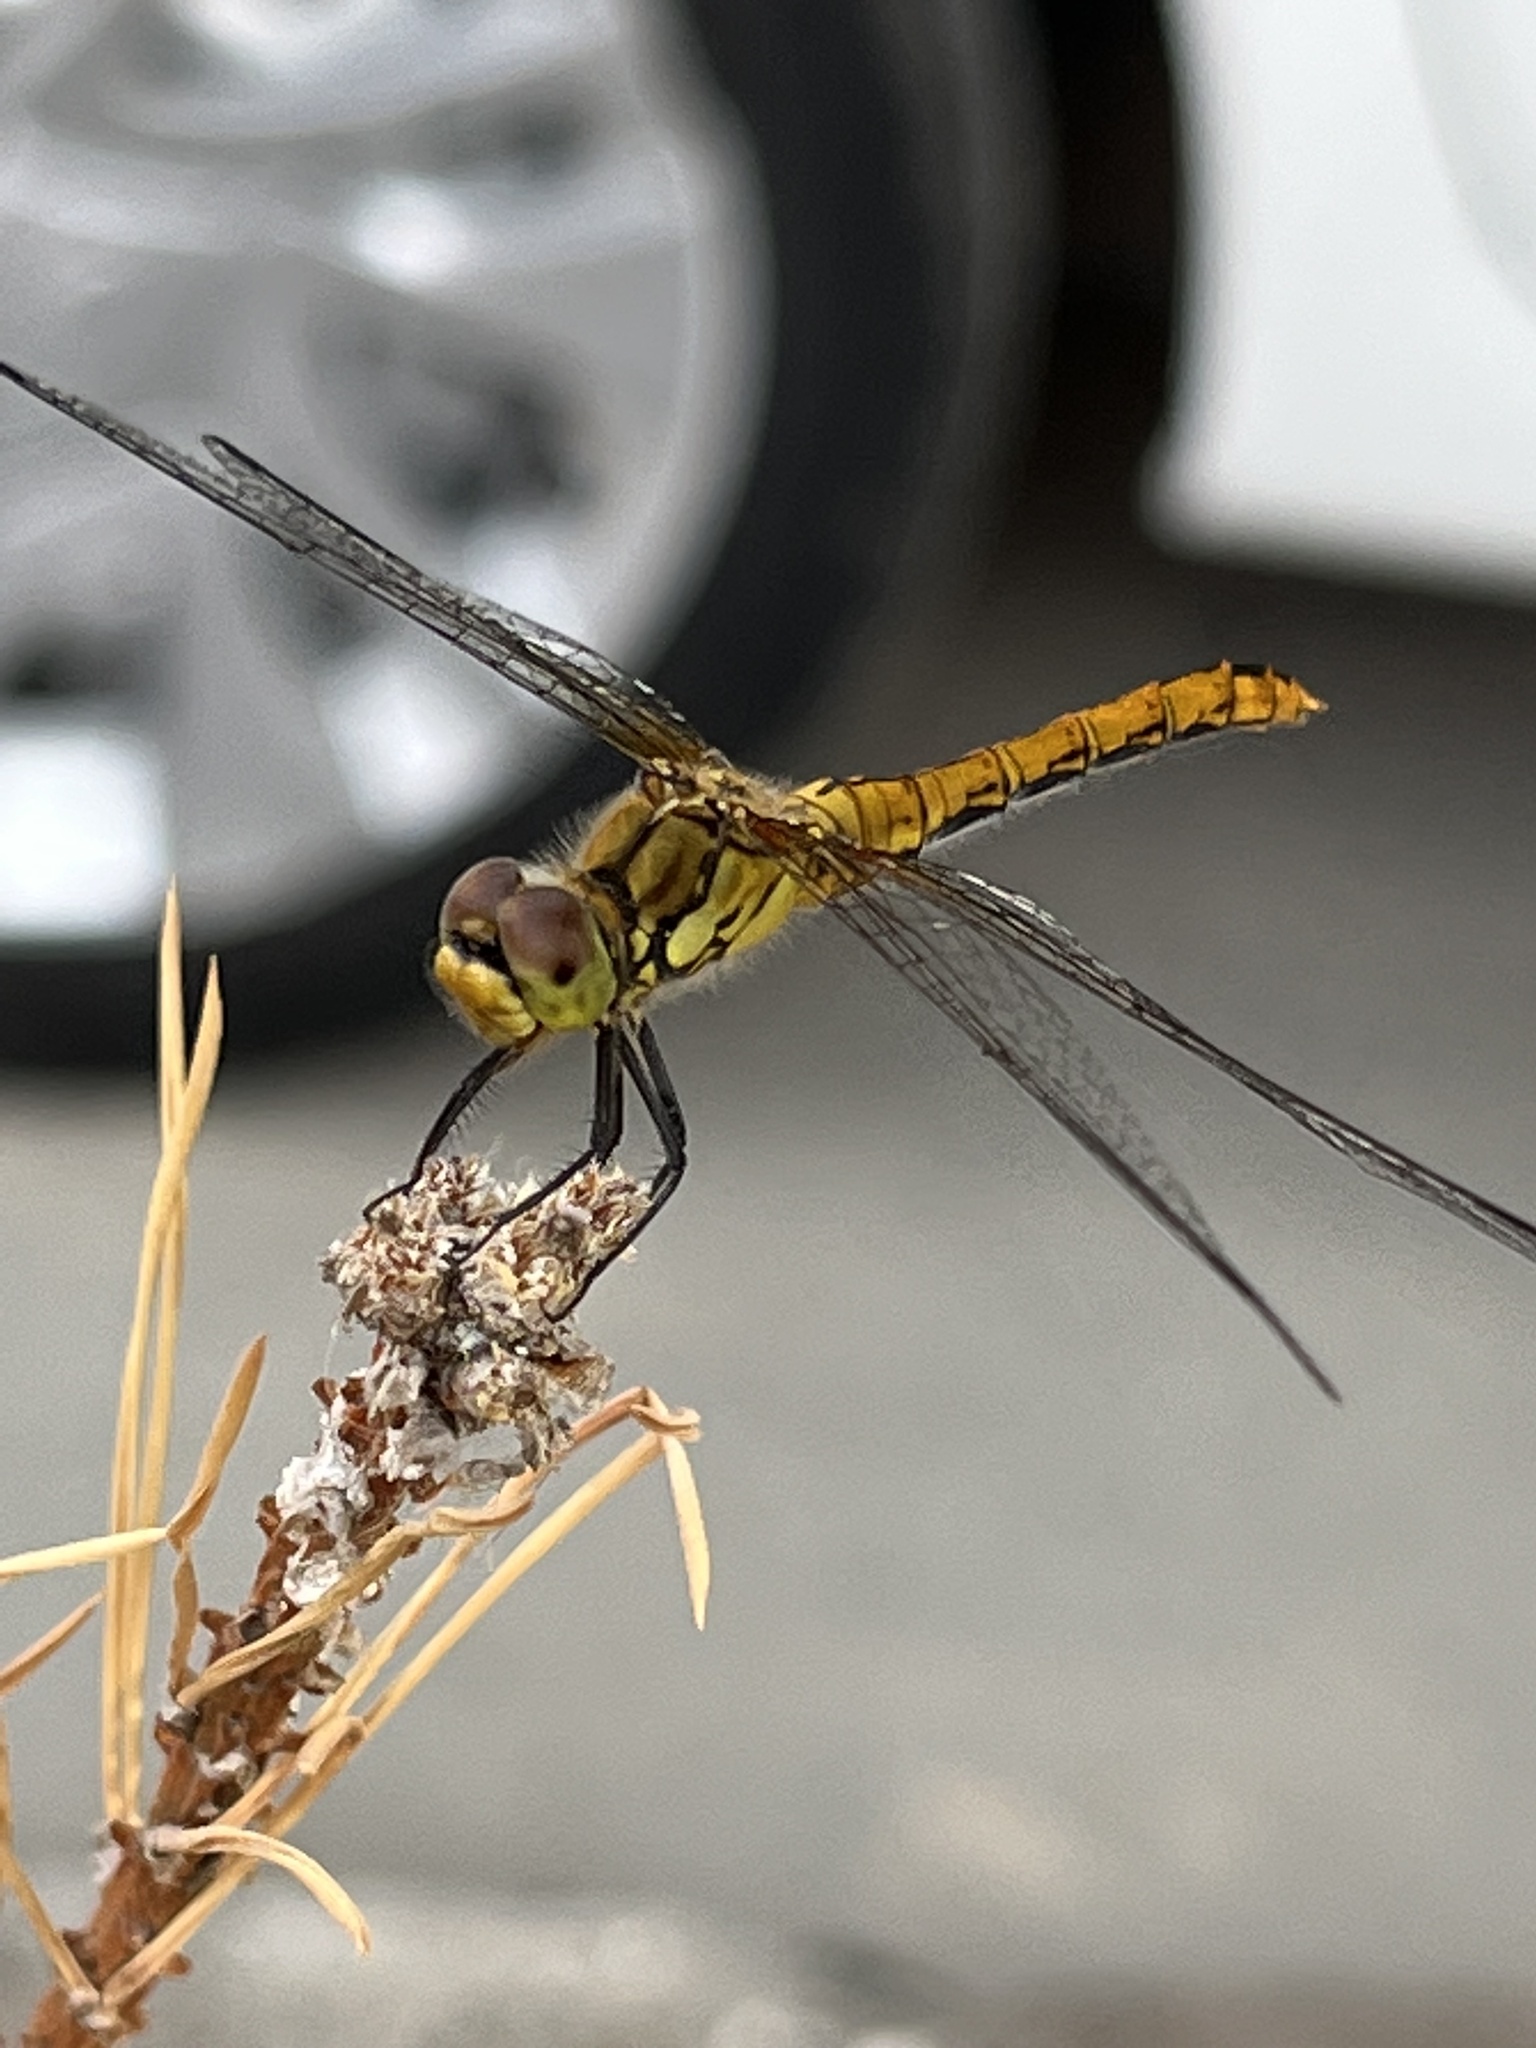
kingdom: Animalia
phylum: Arthropoda
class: Insecta
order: Odonata
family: Libellulidae
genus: Sympetrum
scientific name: Sympetrum sanguineum
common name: Ruddy darter
